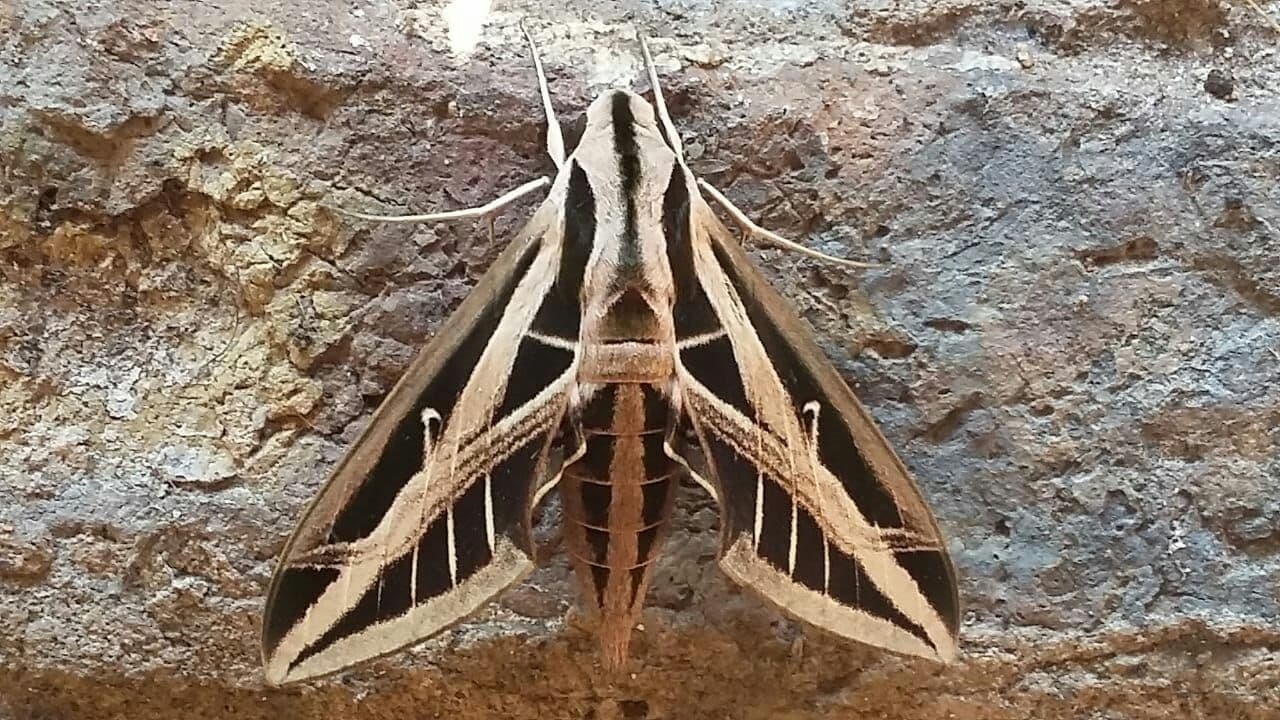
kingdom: Animalia
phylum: Arthropoda
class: Insecta
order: Lepidoptera
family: Sphingidae
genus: Eumorpha
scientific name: Eumorpha fasciatus
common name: Banded sphinx
